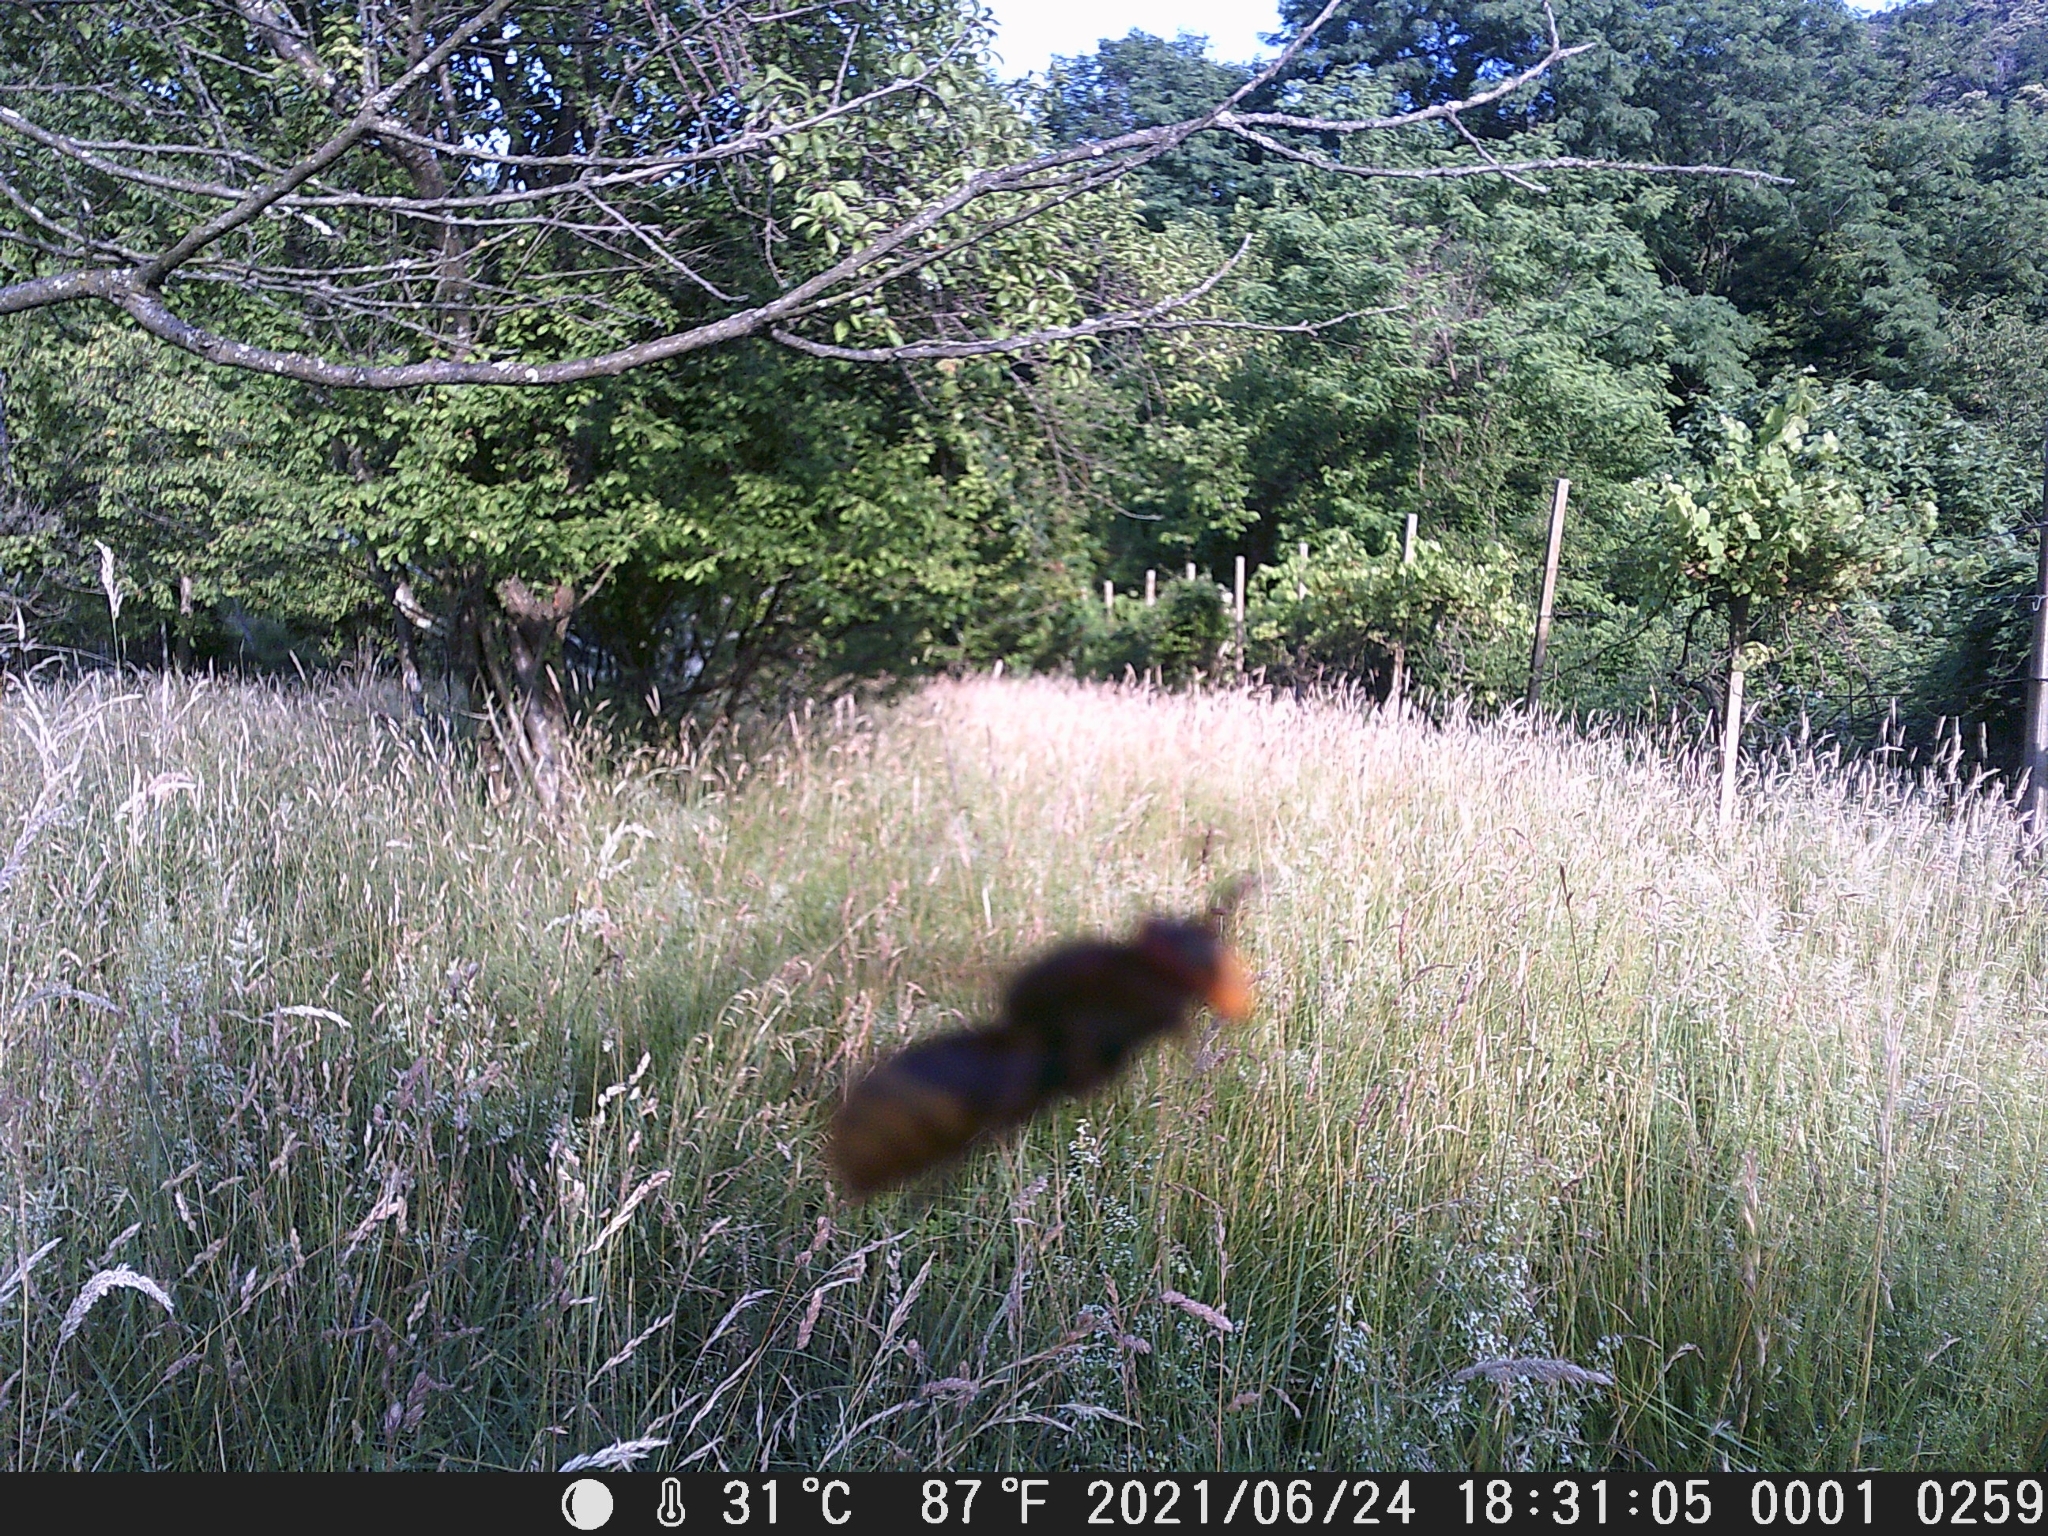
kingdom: Animalia
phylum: Arthropoda
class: Insecta
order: Hymenoptera
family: Vespidae
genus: Vespa
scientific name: Vespa crabro
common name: Hornet
